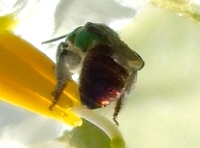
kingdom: Animalia
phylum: Arthropoda
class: Insecta
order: Hymenoptera
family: Halictidae
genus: Augochloropsis
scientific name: Augochloropsis
